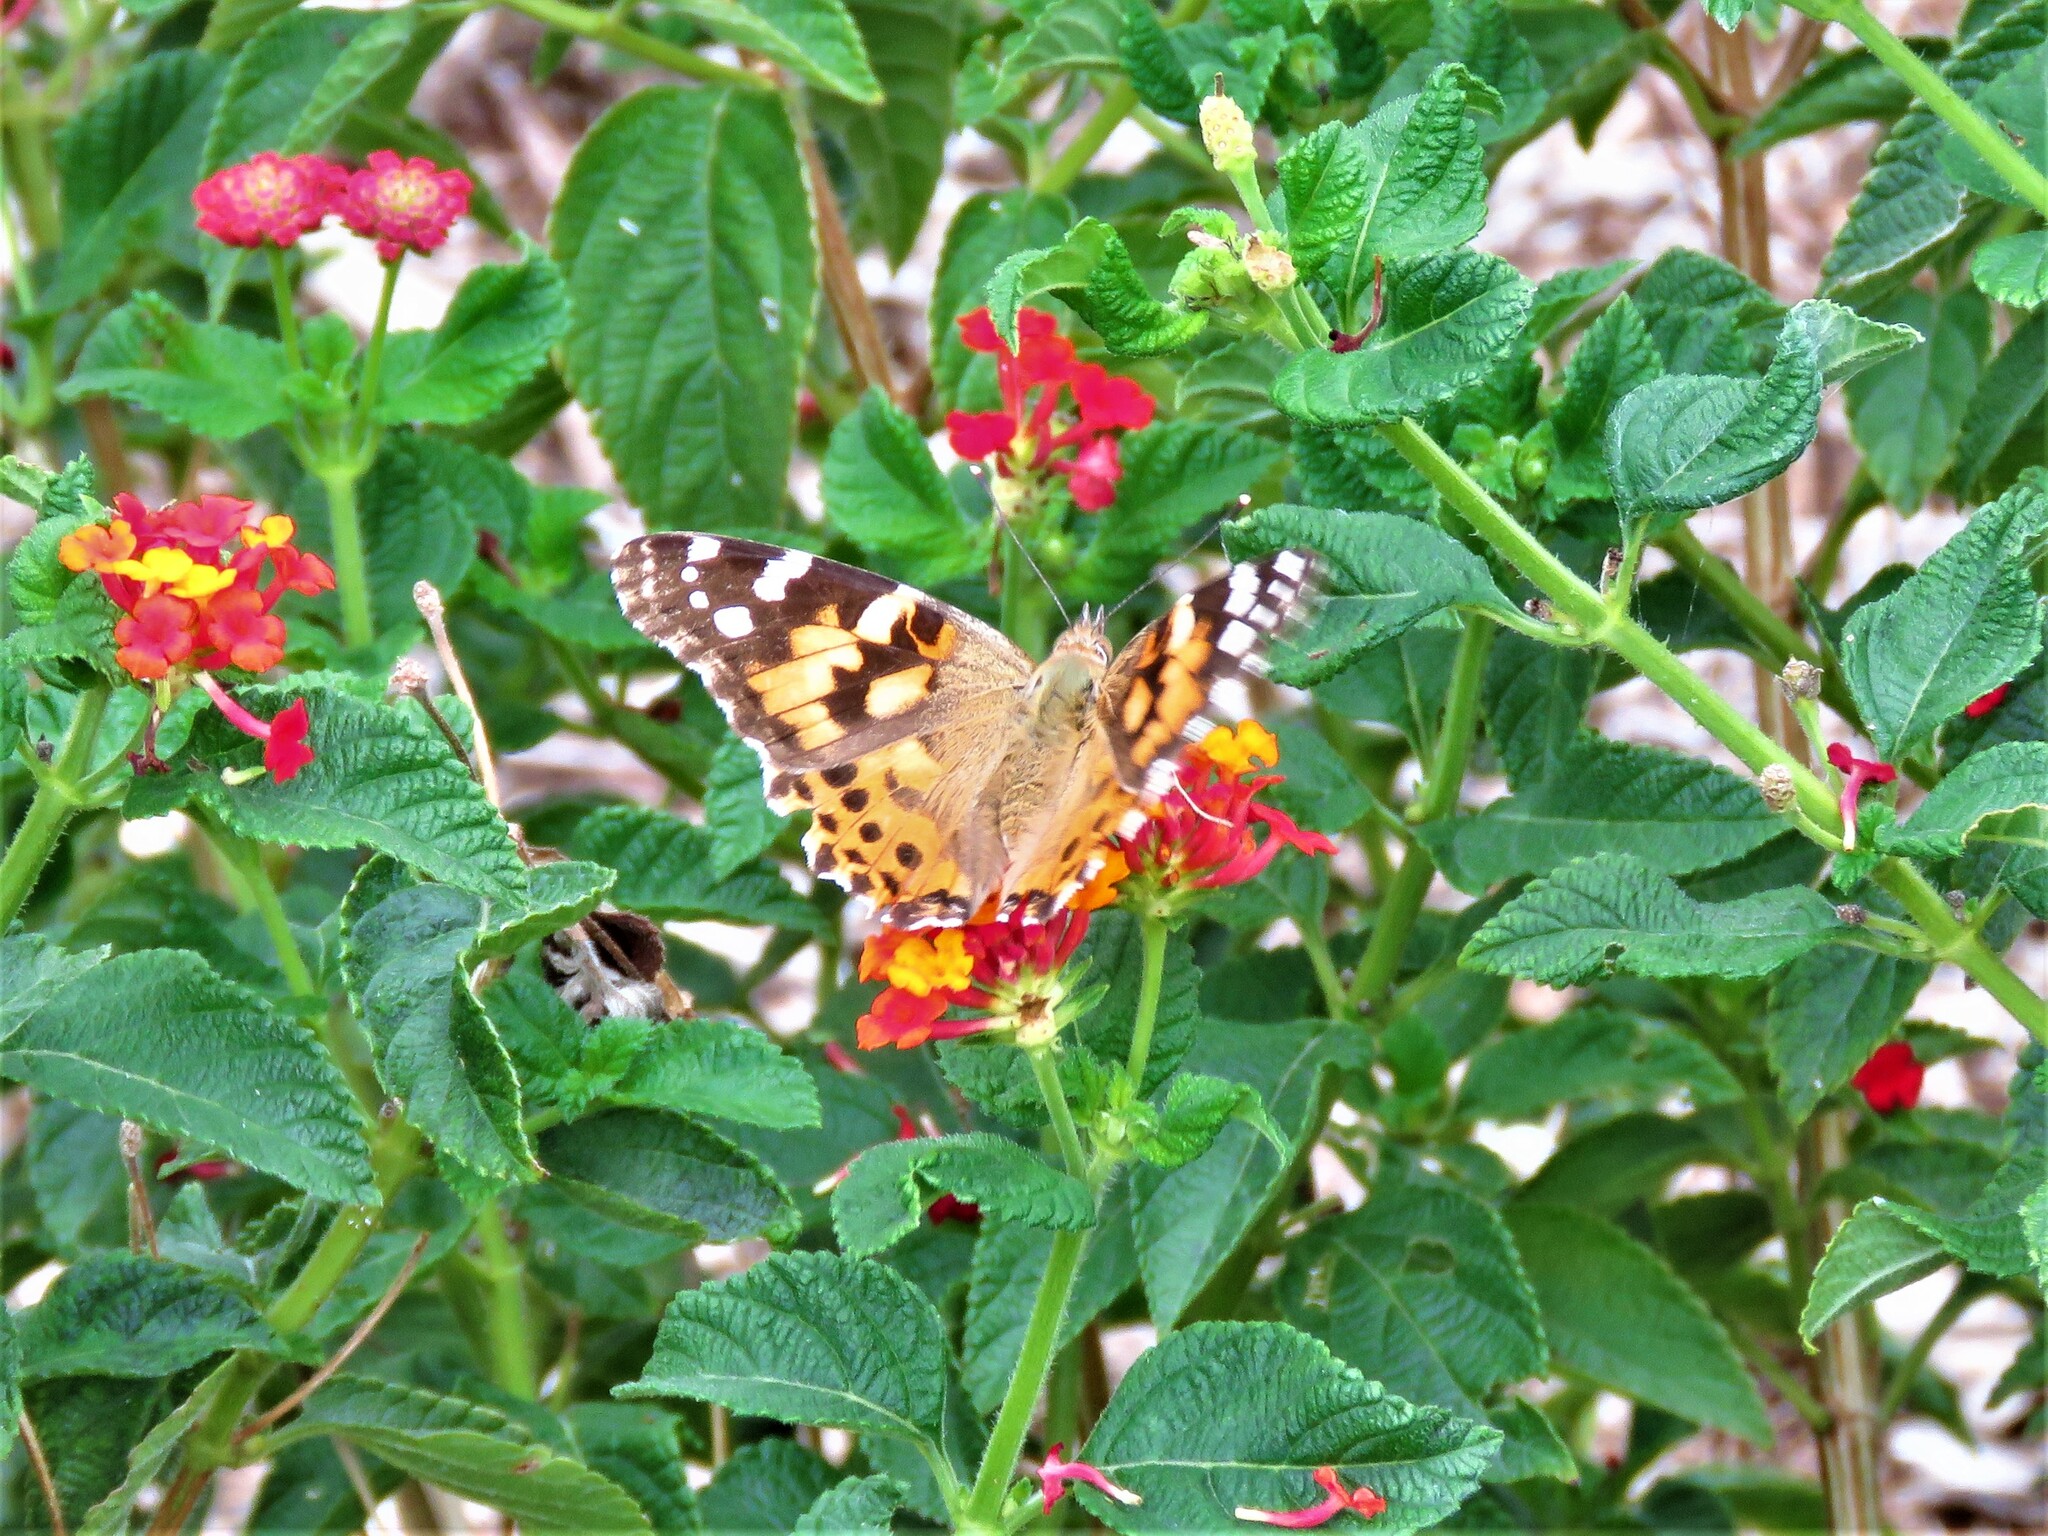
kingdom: Animalia
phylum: Arthropoda
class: Insecta
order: Lepidoptera
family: Nymphalidae
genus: Vanessa
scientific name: Vanessa cardui
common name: Painted lady
